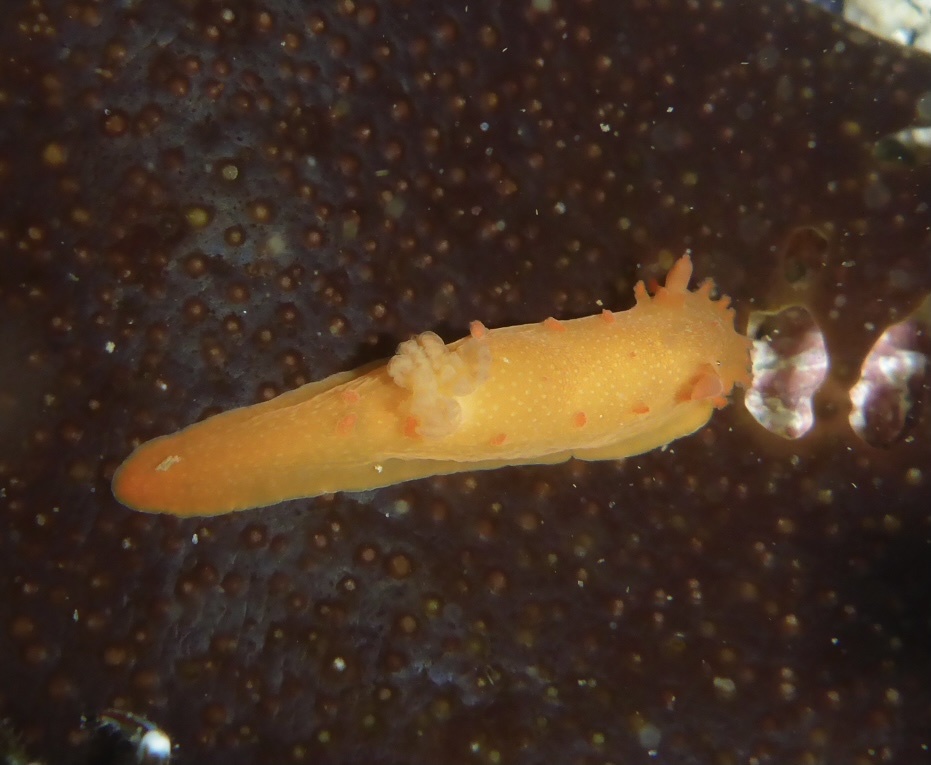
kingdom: Animalia
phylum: Mollusca
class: Gastropoda
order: Nudibranchia
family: Polyceridae
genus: Triopha
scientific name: Triopha maculata
